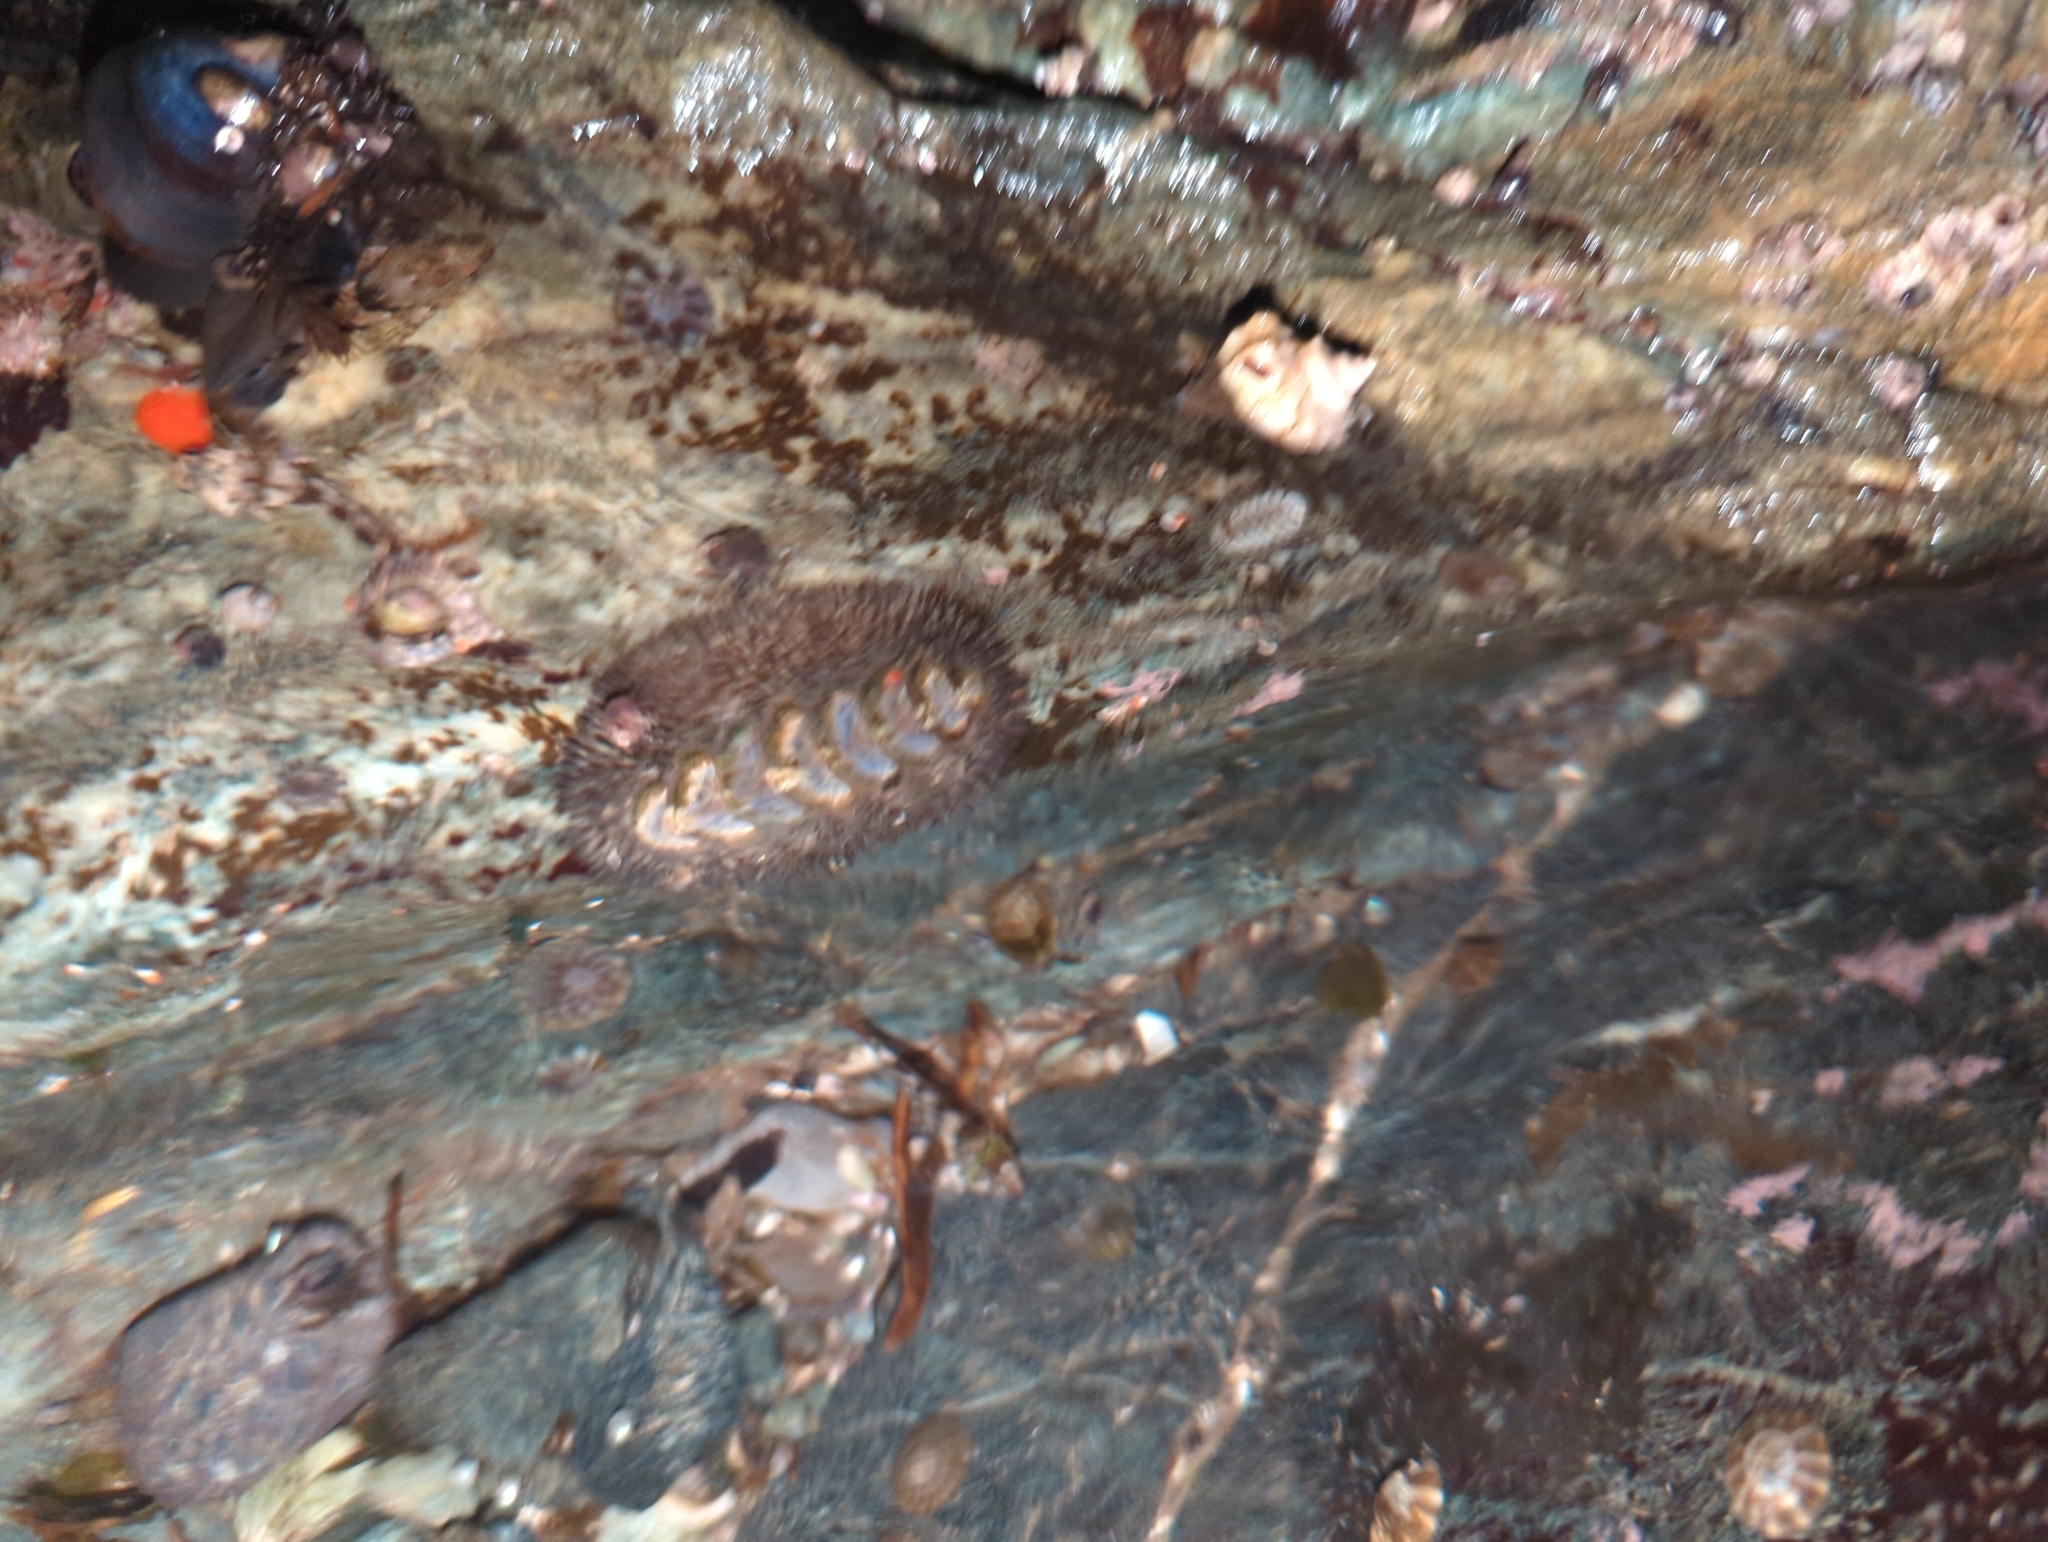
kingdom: Animalia
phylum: Mollusca
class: Polyplacophora
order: Chitonida
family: Mopaliidae
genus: Mopalia
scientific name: Mopalia muscosa
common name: Mossy chiton
